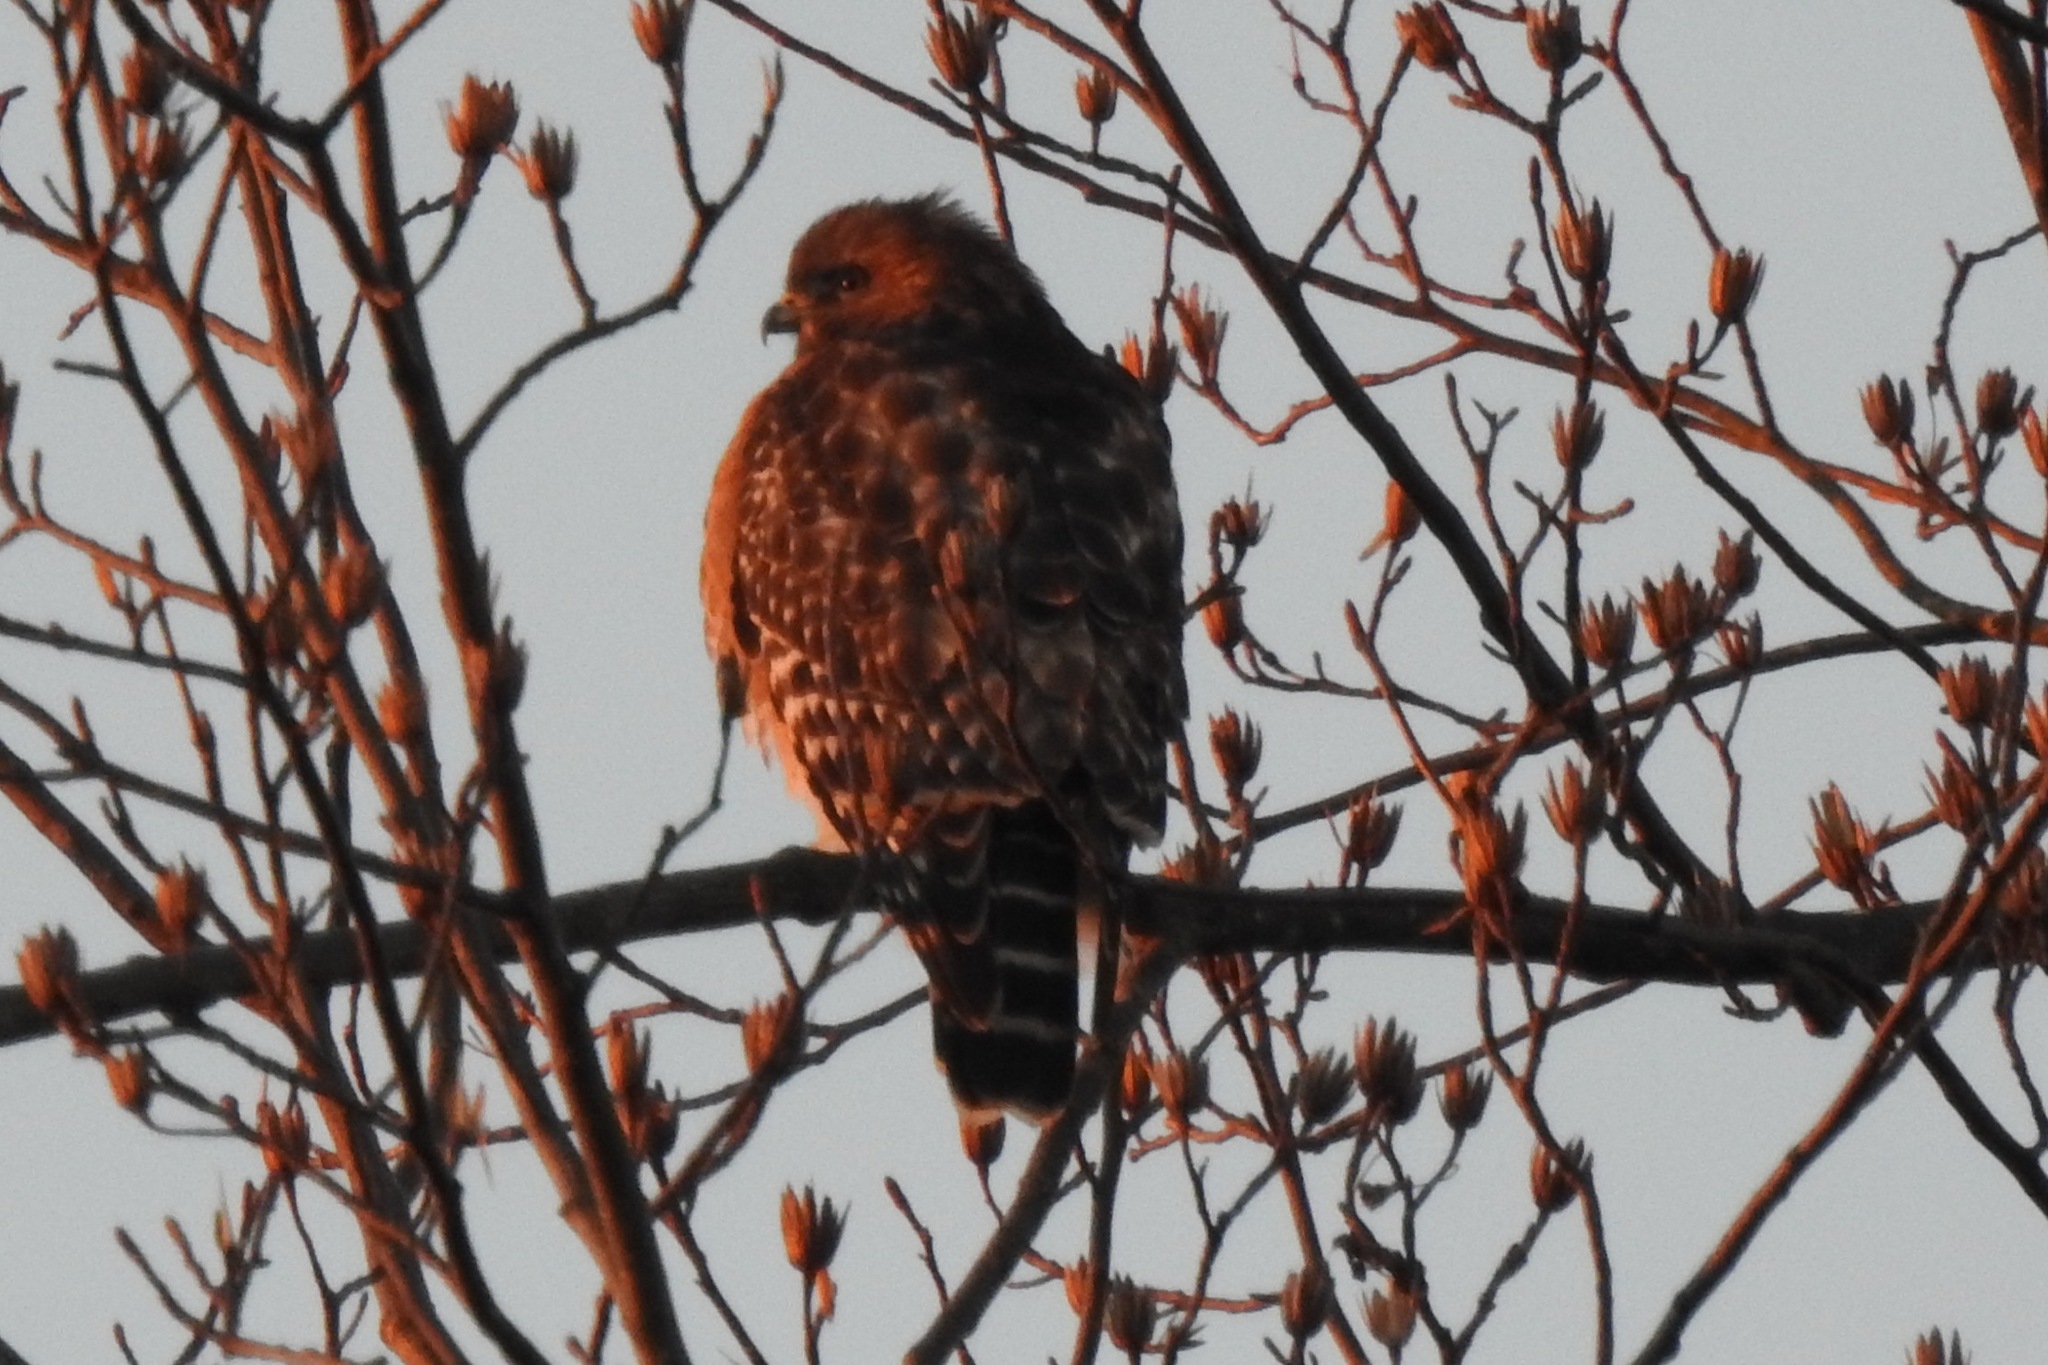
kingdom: Animalia
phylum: Chordata
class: Aves
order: Accipitriformes
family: Accipitridae
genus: Buteo
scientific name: Buteo lineatus
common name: Red-shouldered hawk
